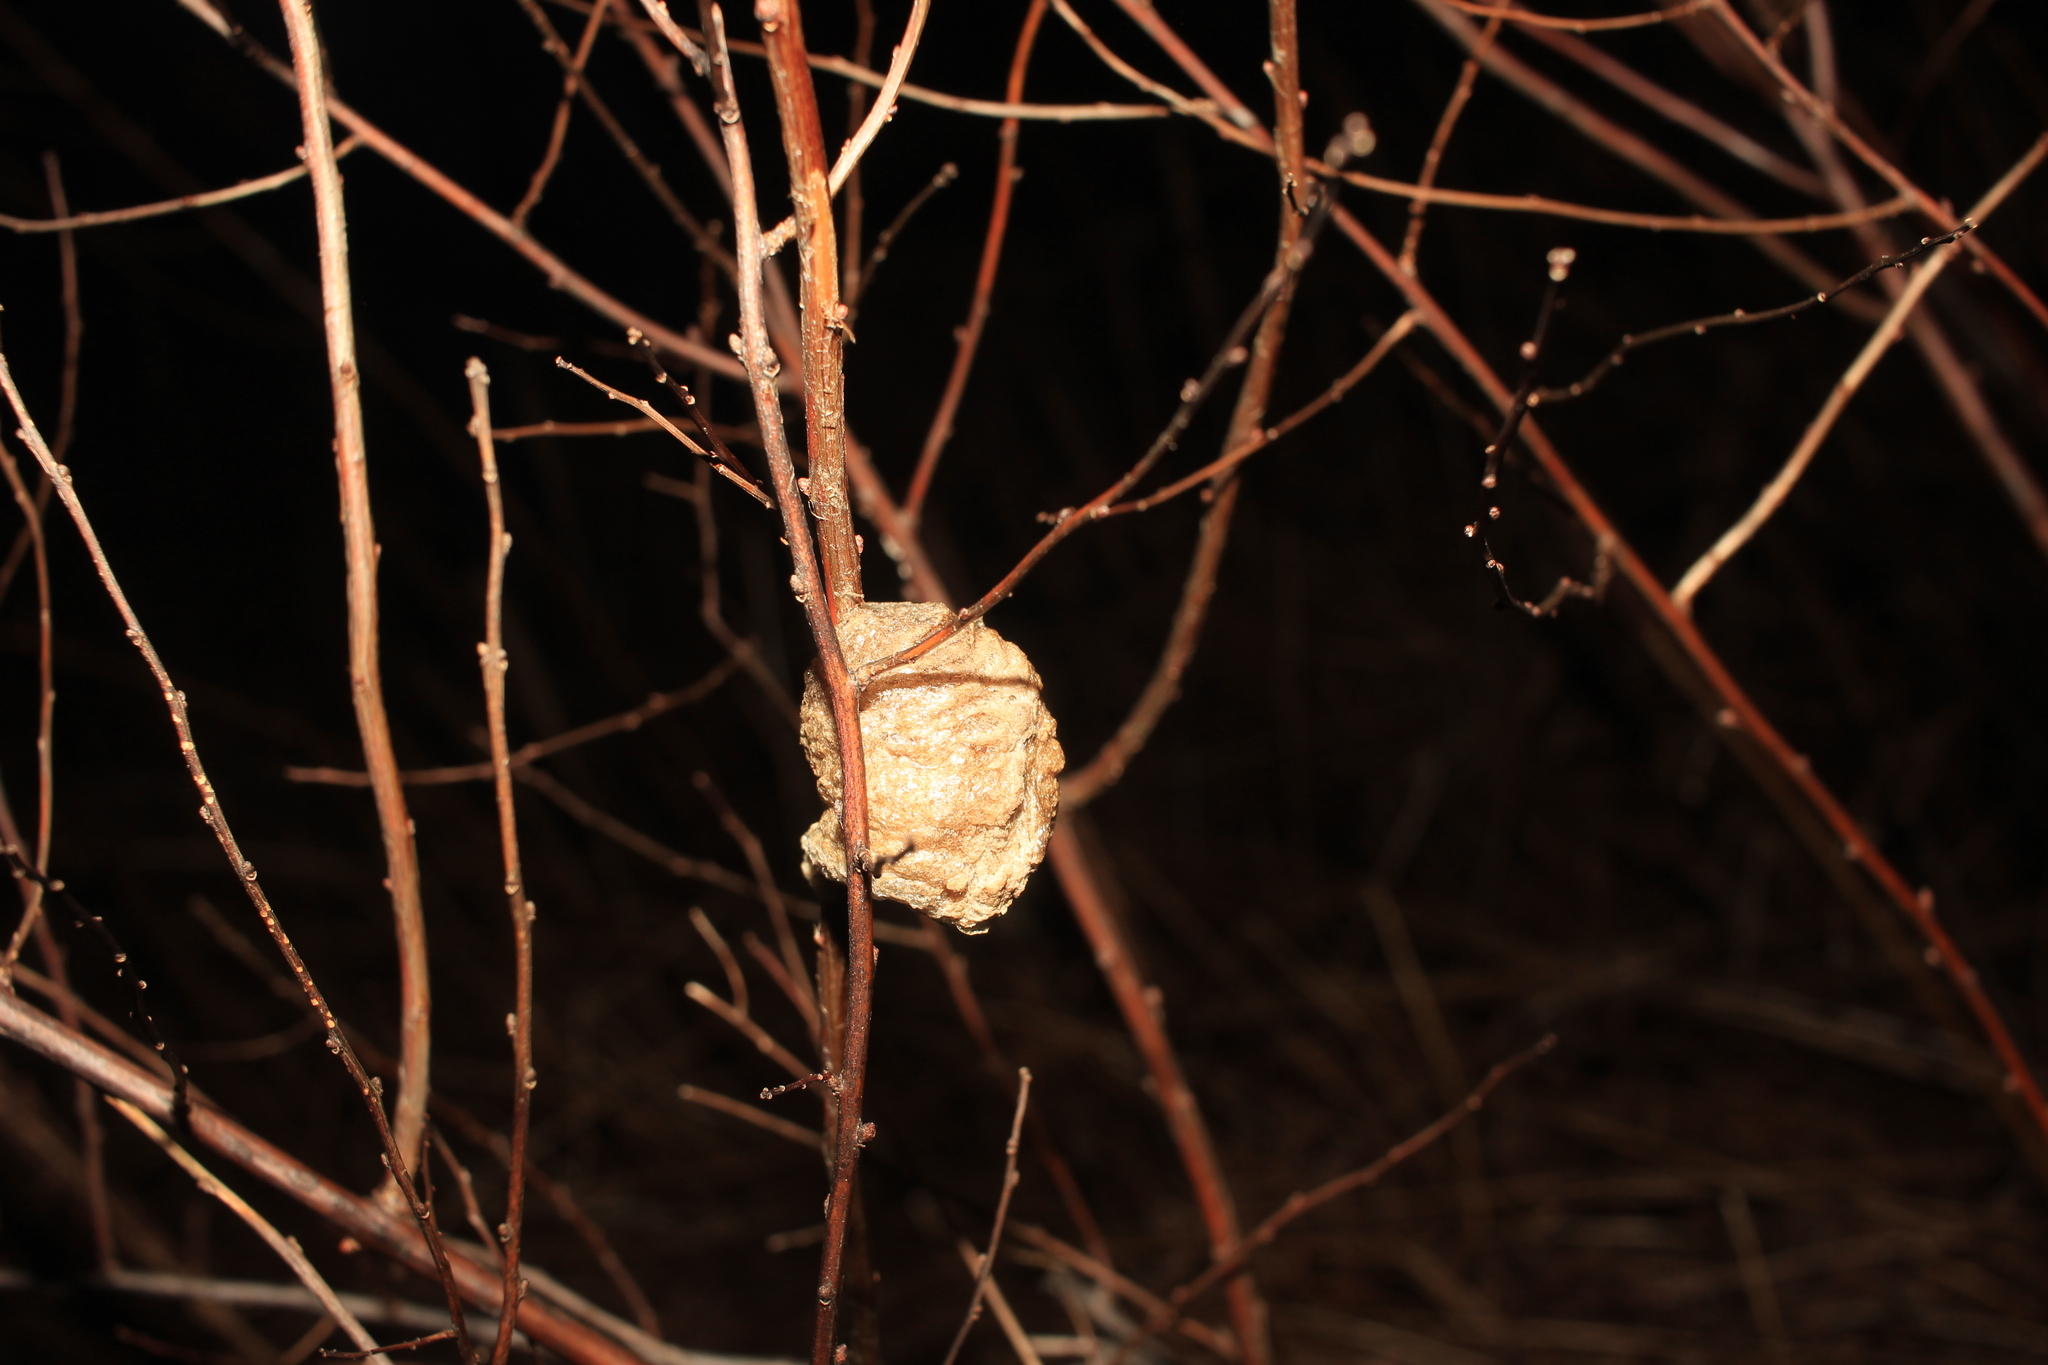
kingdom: Animalia
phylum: Arthropoda
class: Insecta
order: Mantodea
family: Mantidae
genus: Tenodera
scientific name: Tenodera sinensis
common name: Chinese mantis
